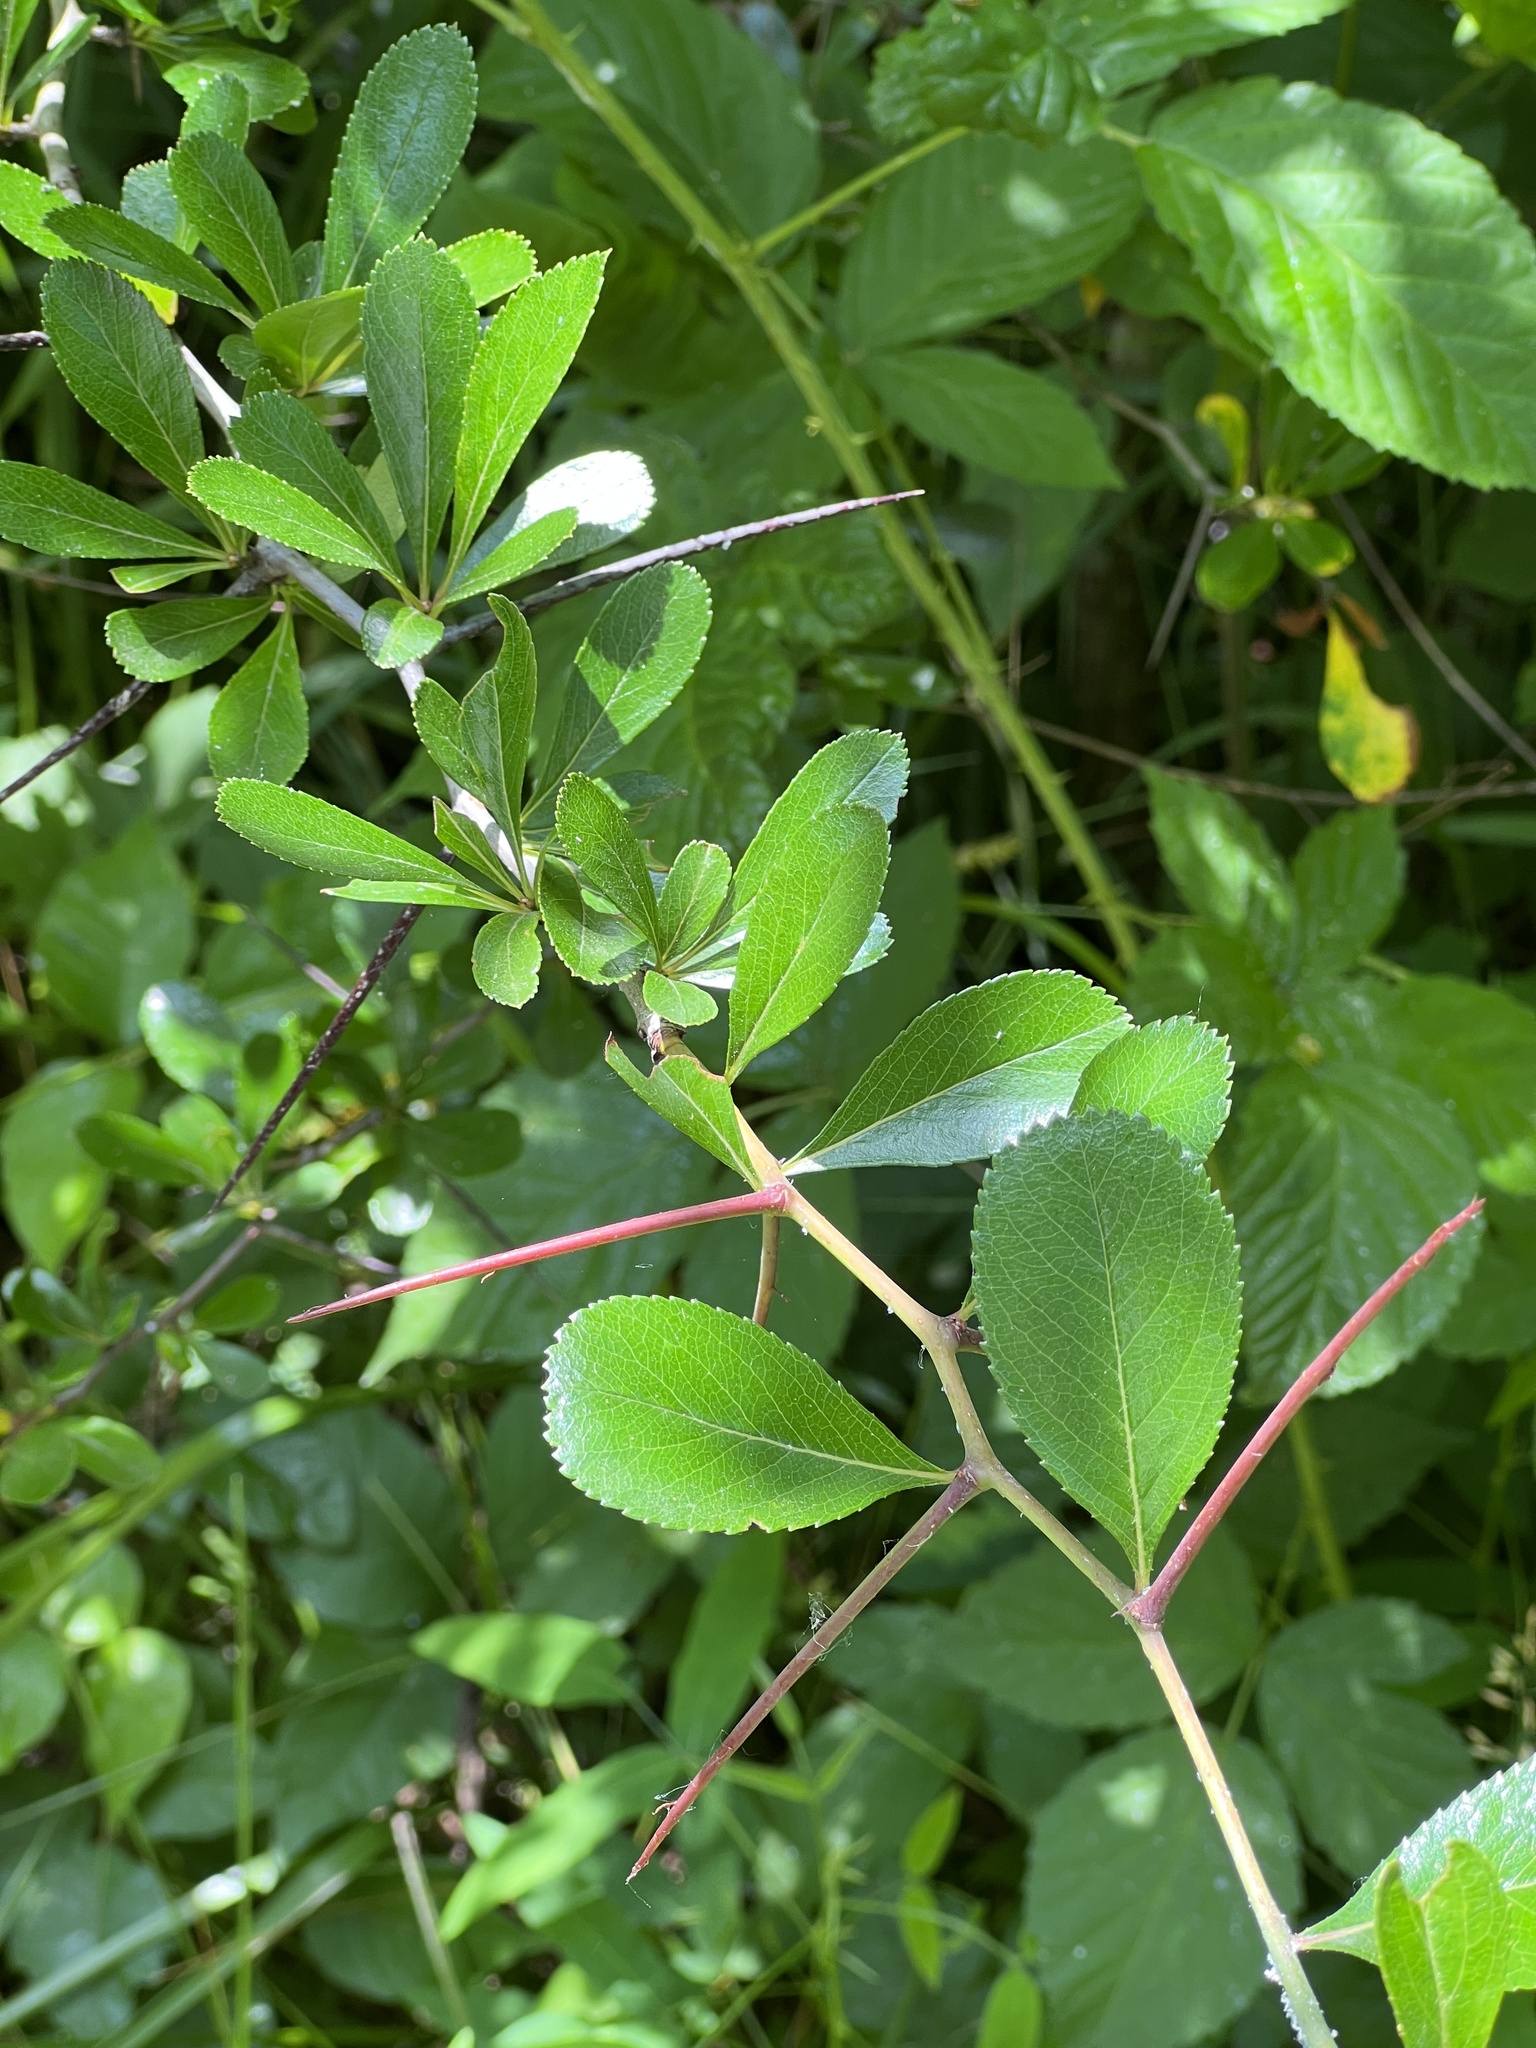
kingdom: Plantae
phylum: Tracheophyta
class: Magnoliopsida
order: Rosales
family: Rosaceae
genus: Crataegus
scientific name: Crataegus crus-galli
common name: Cockspurthorn
